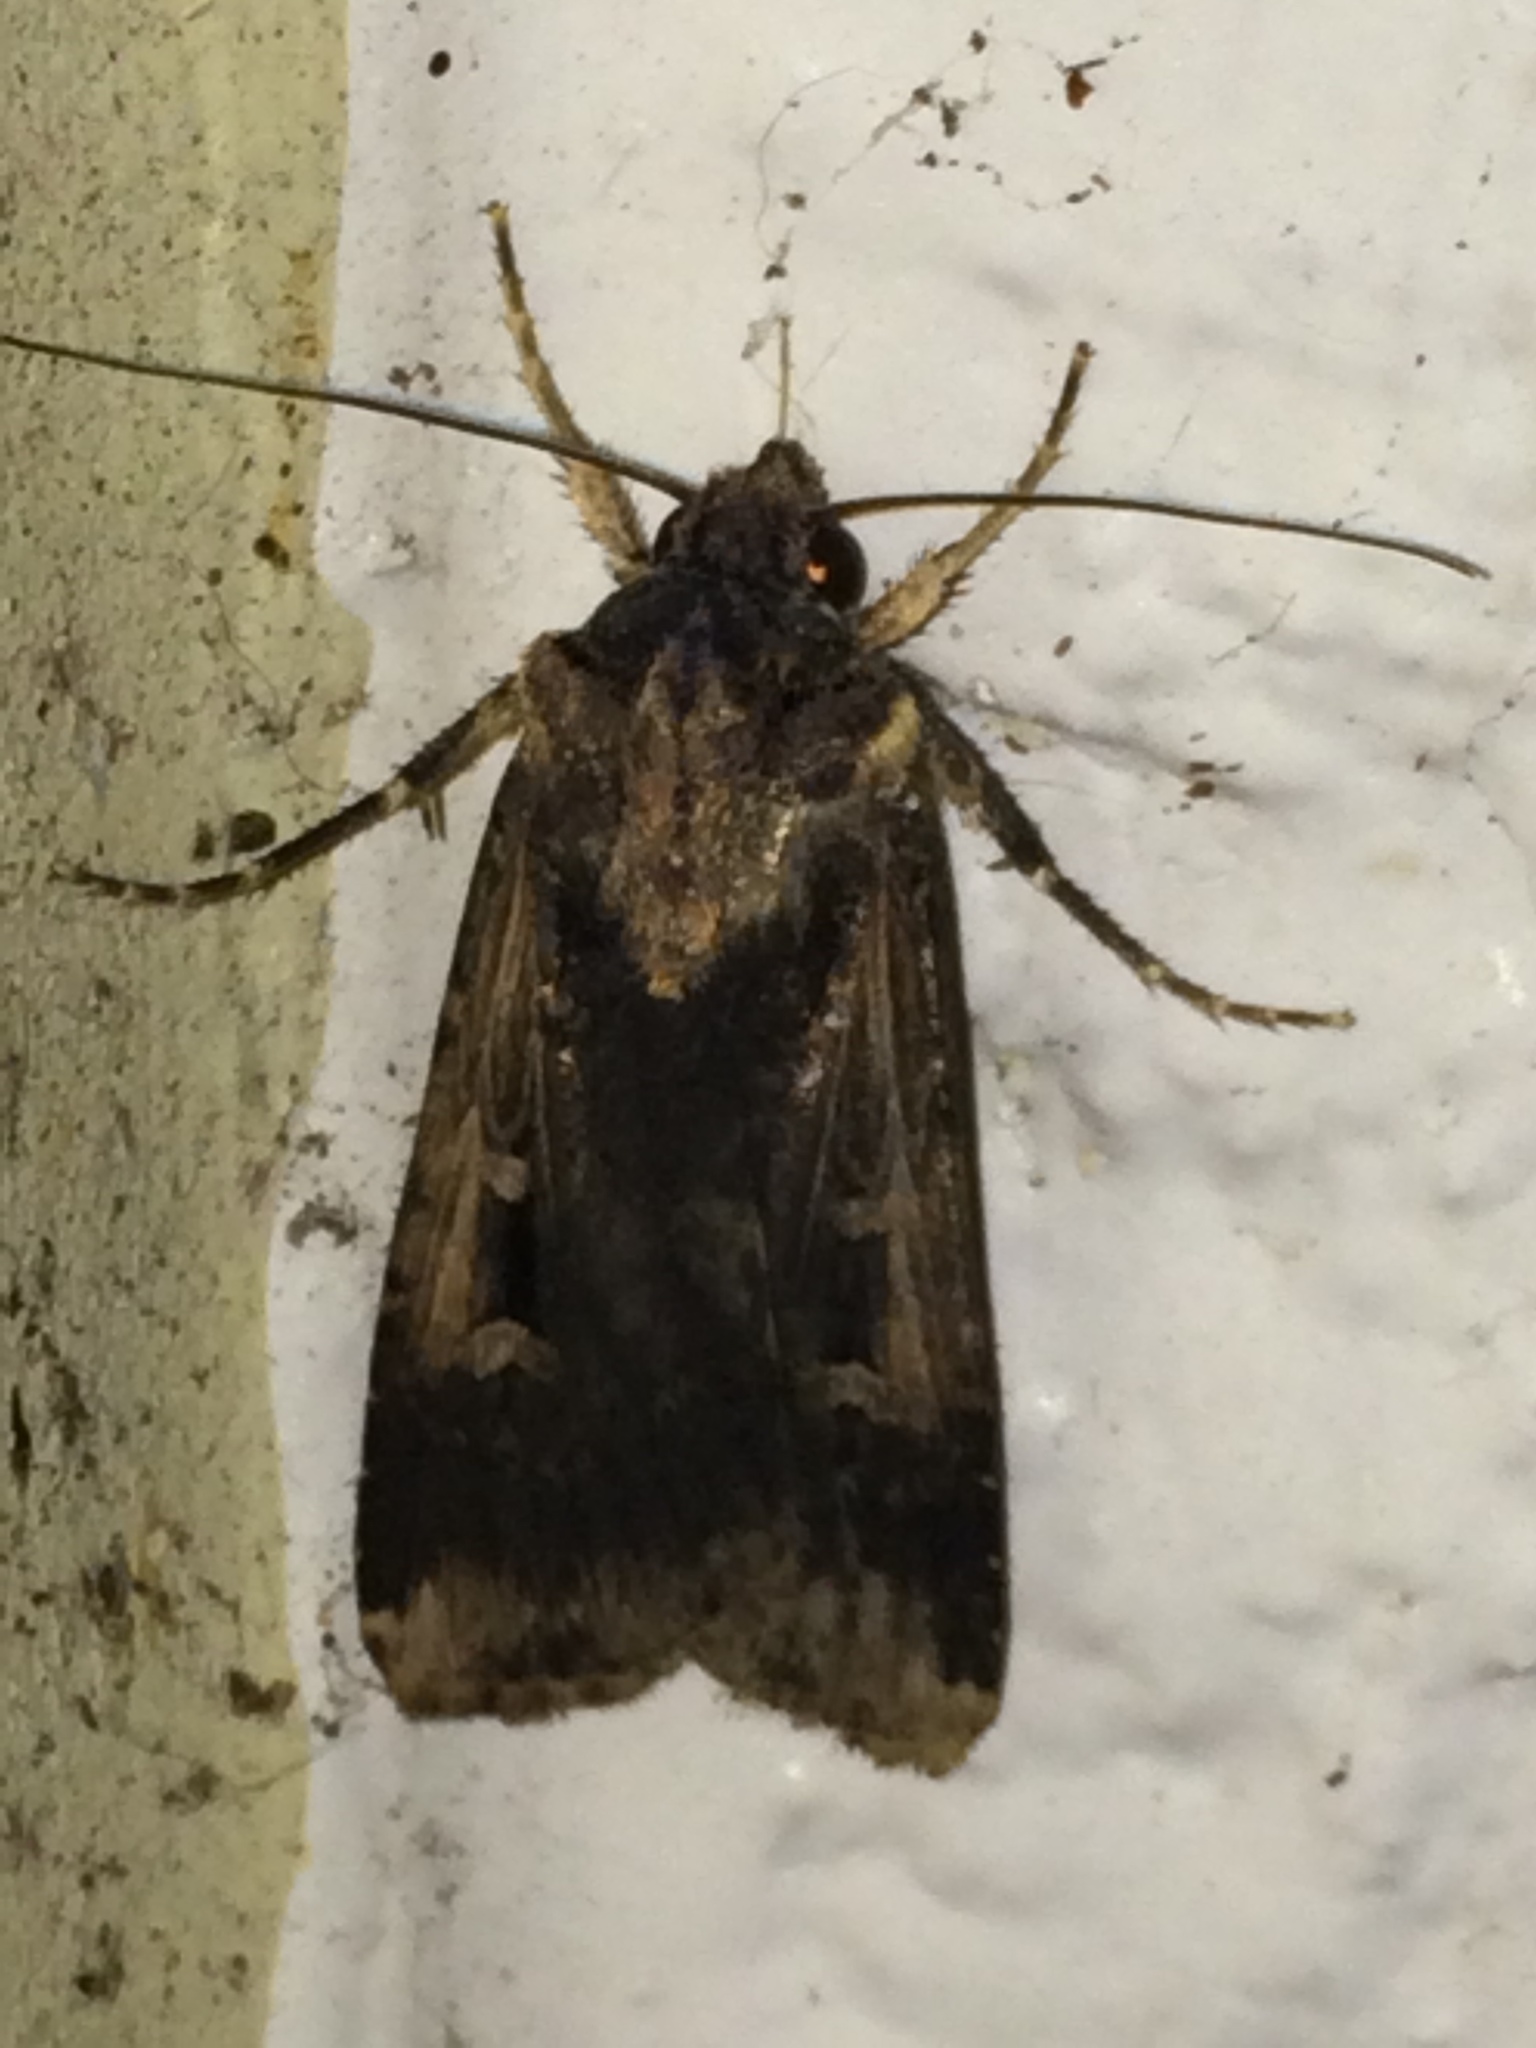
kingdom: Animalia
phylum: Arthropoda
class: Insecta
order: Lepidoptera
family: Noctuidae
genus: Feltia
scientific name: Feltia subterranea
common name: Granulate cutworm
